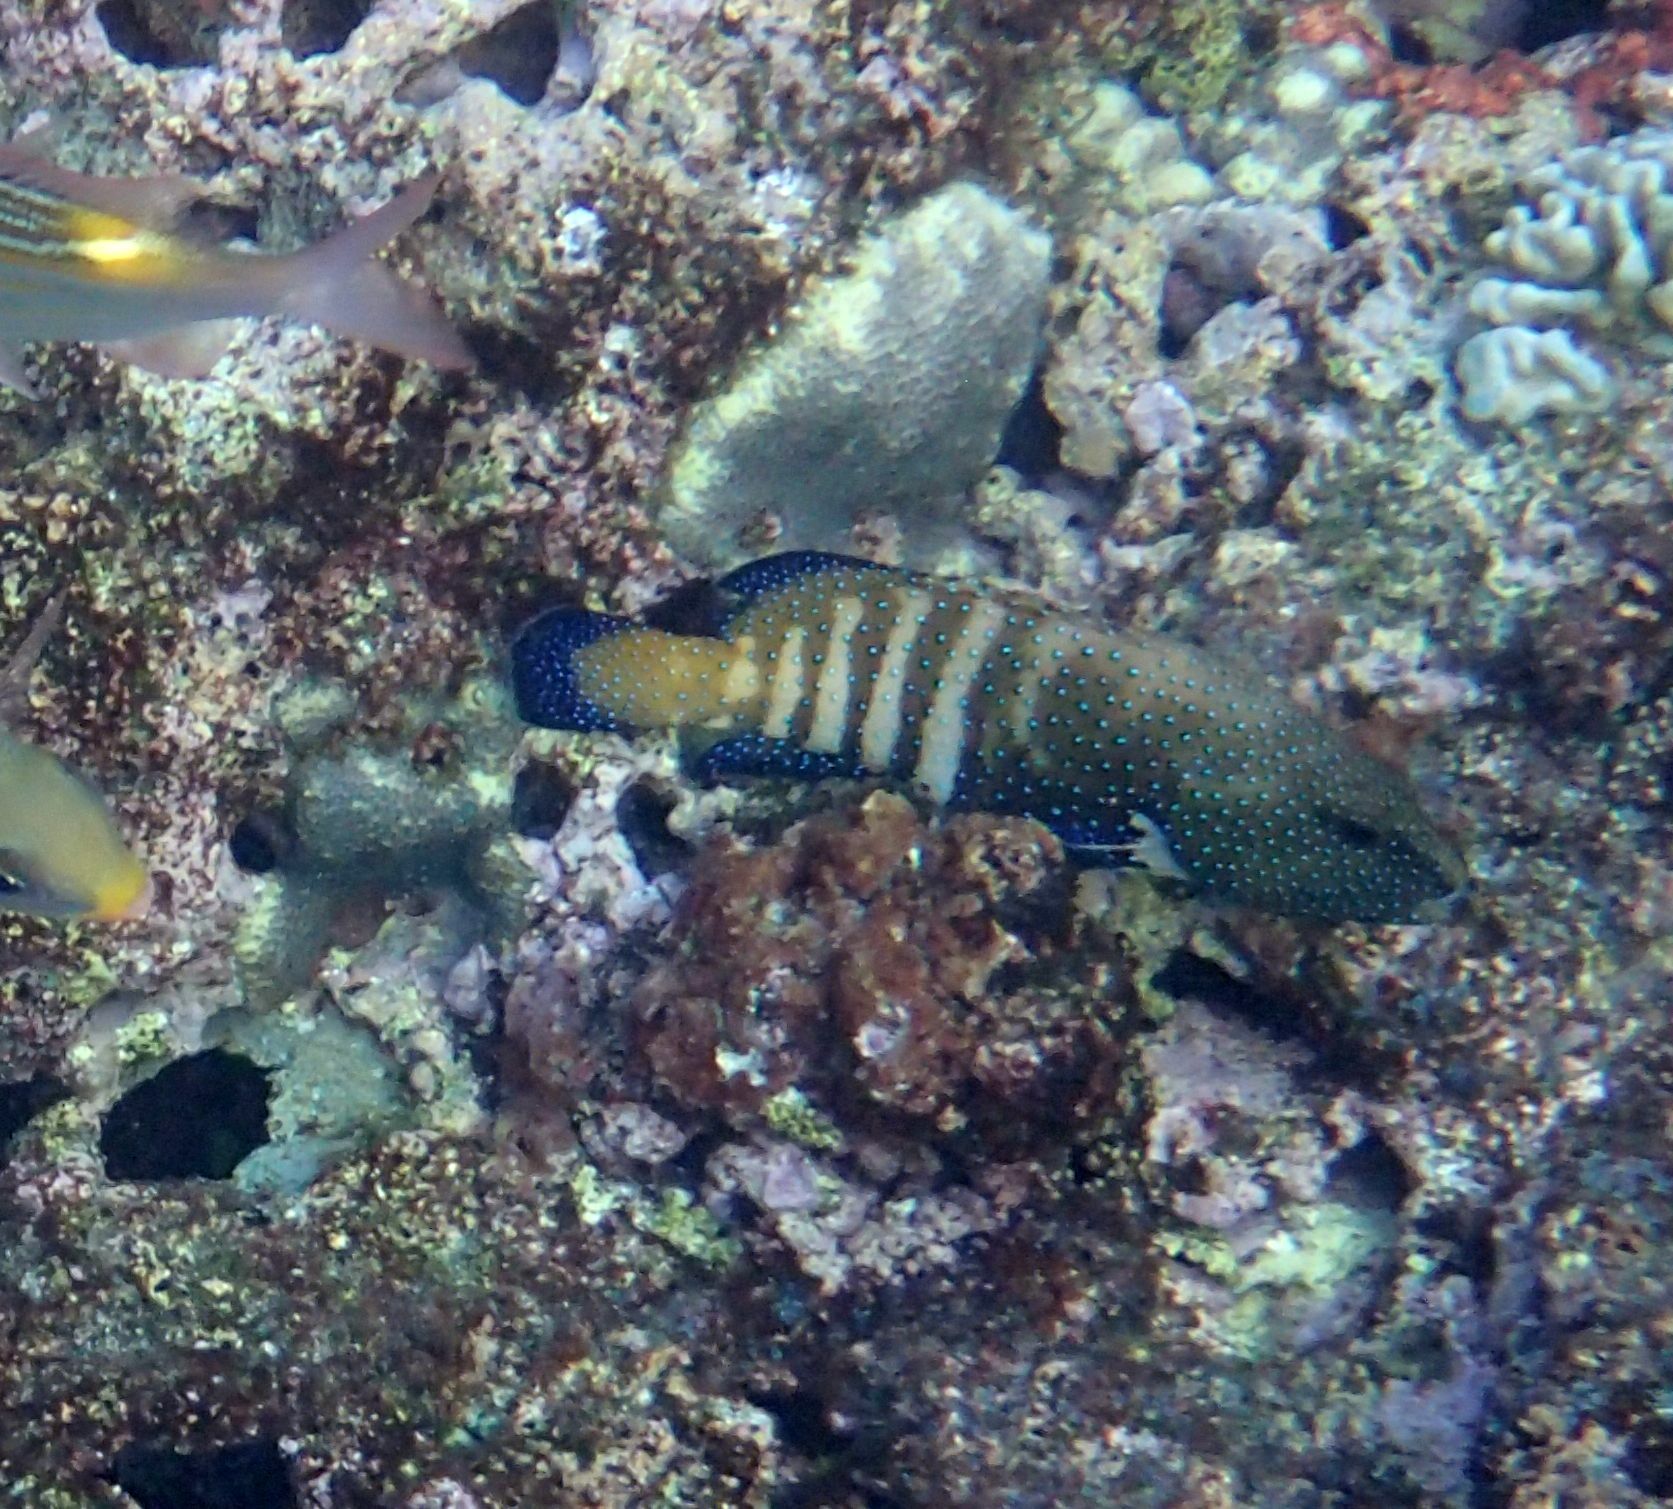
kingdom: Animalia
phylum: Chordata
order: Perciformes
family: Serranidae
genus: Cephalopholis
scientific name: Cephalopholis argus
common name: Peacock grouper
